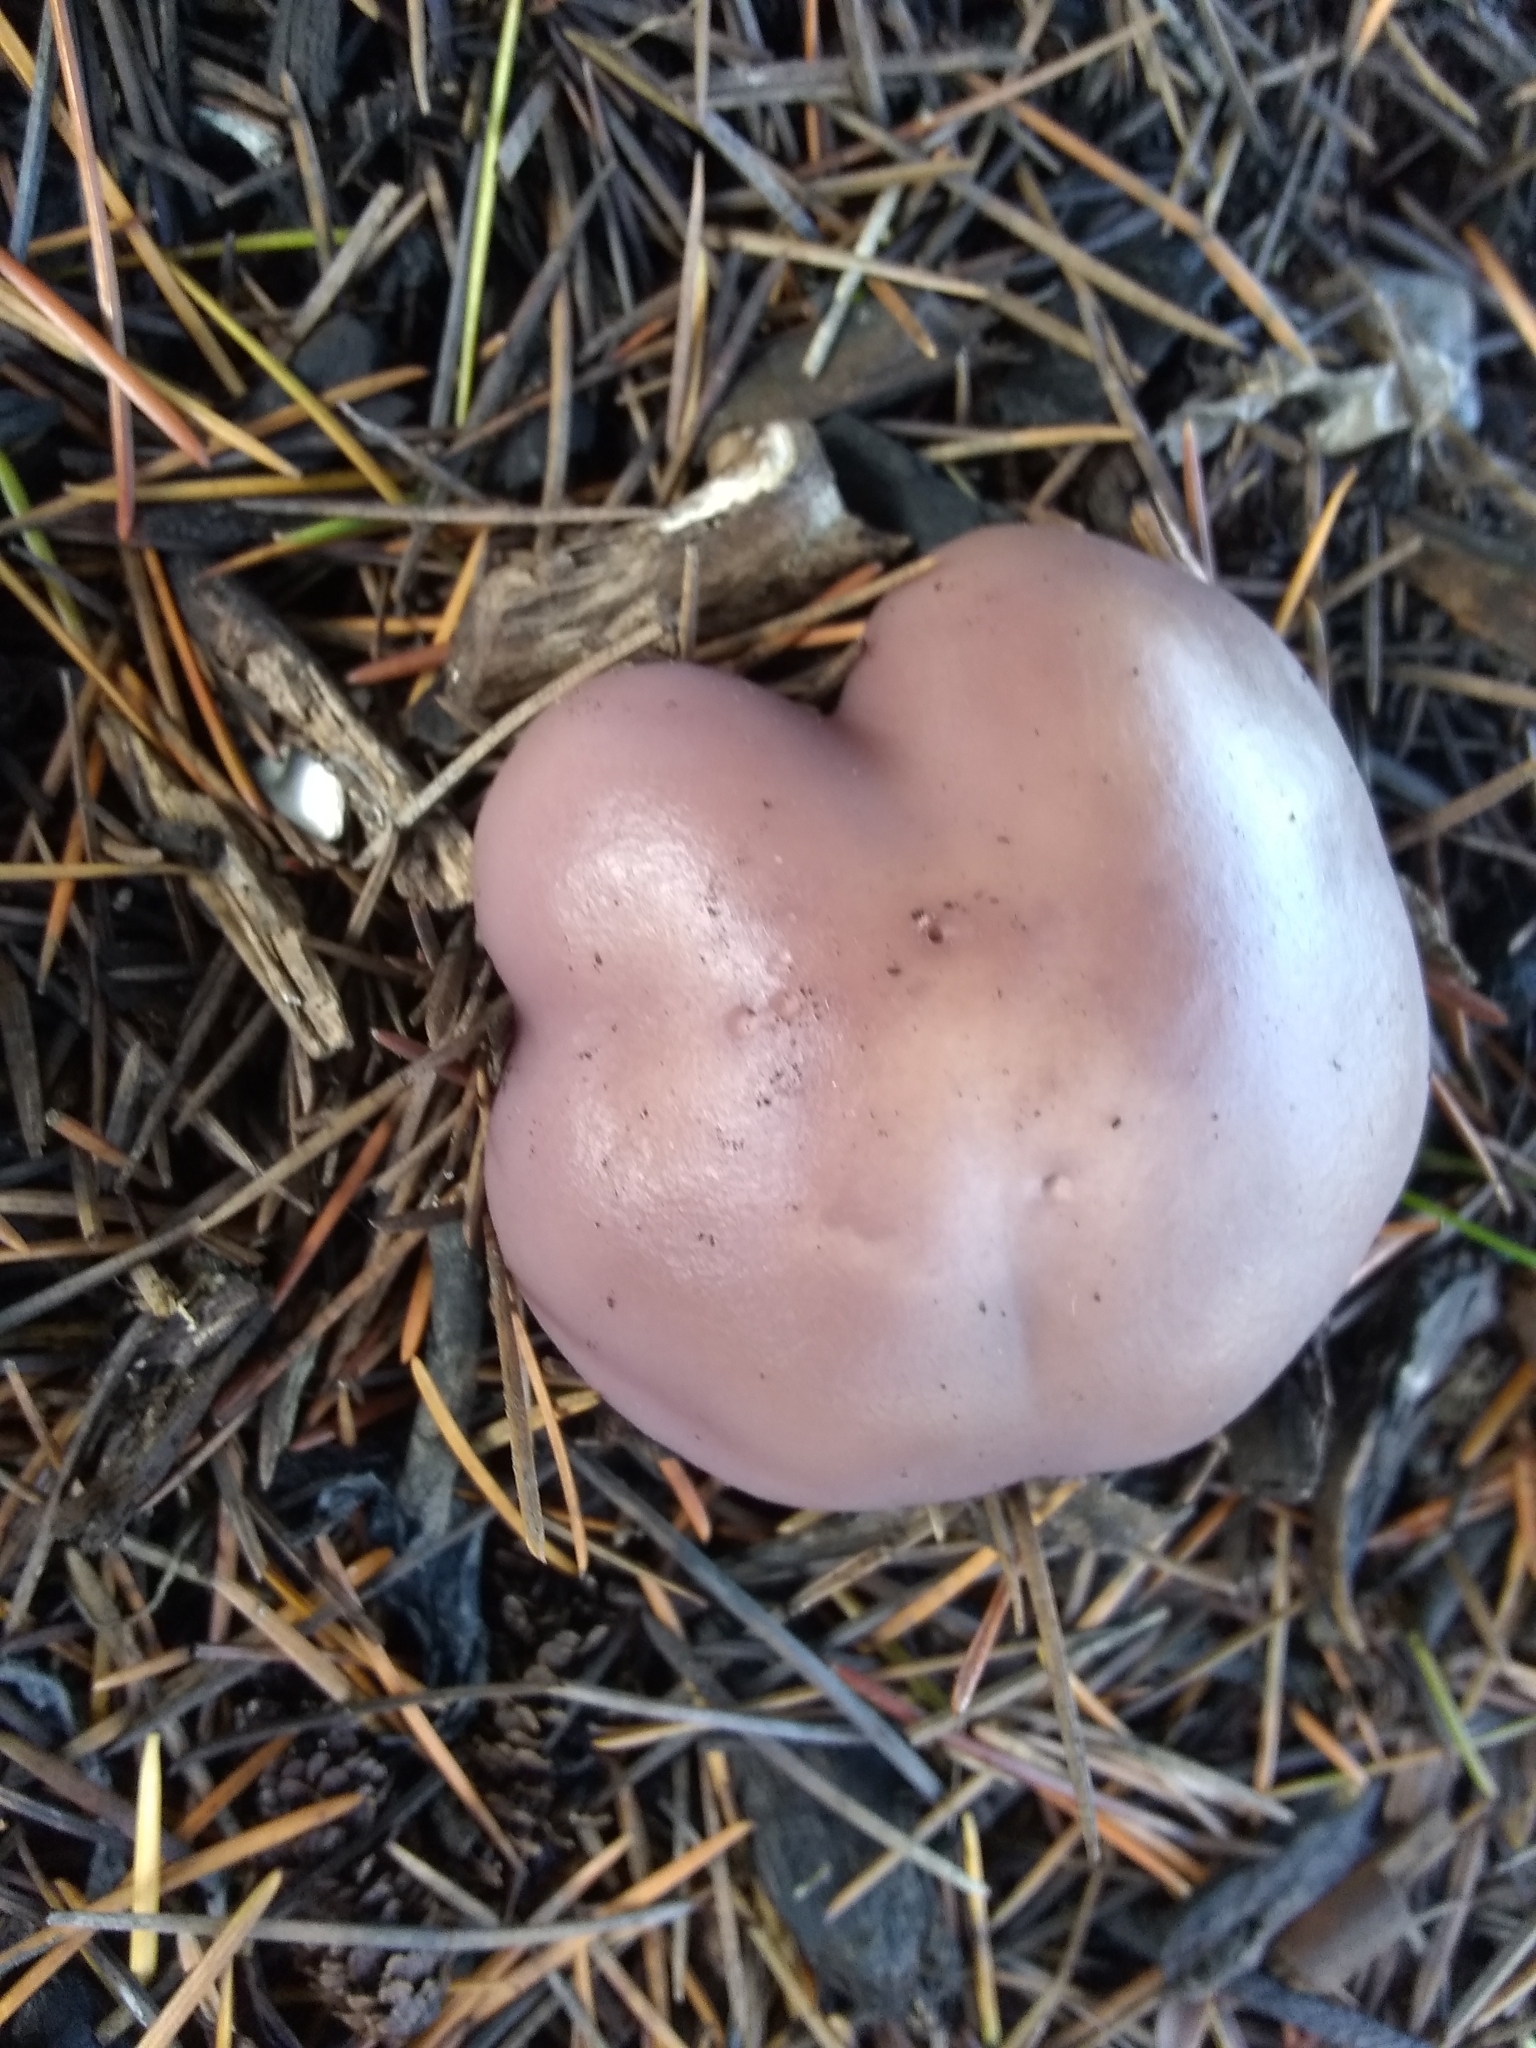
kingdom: Fungi
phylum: Basidiomycota
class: Agaricomycetes
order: Agaricales
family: Tricholomataceae
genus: Collybia
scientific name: Collybia
